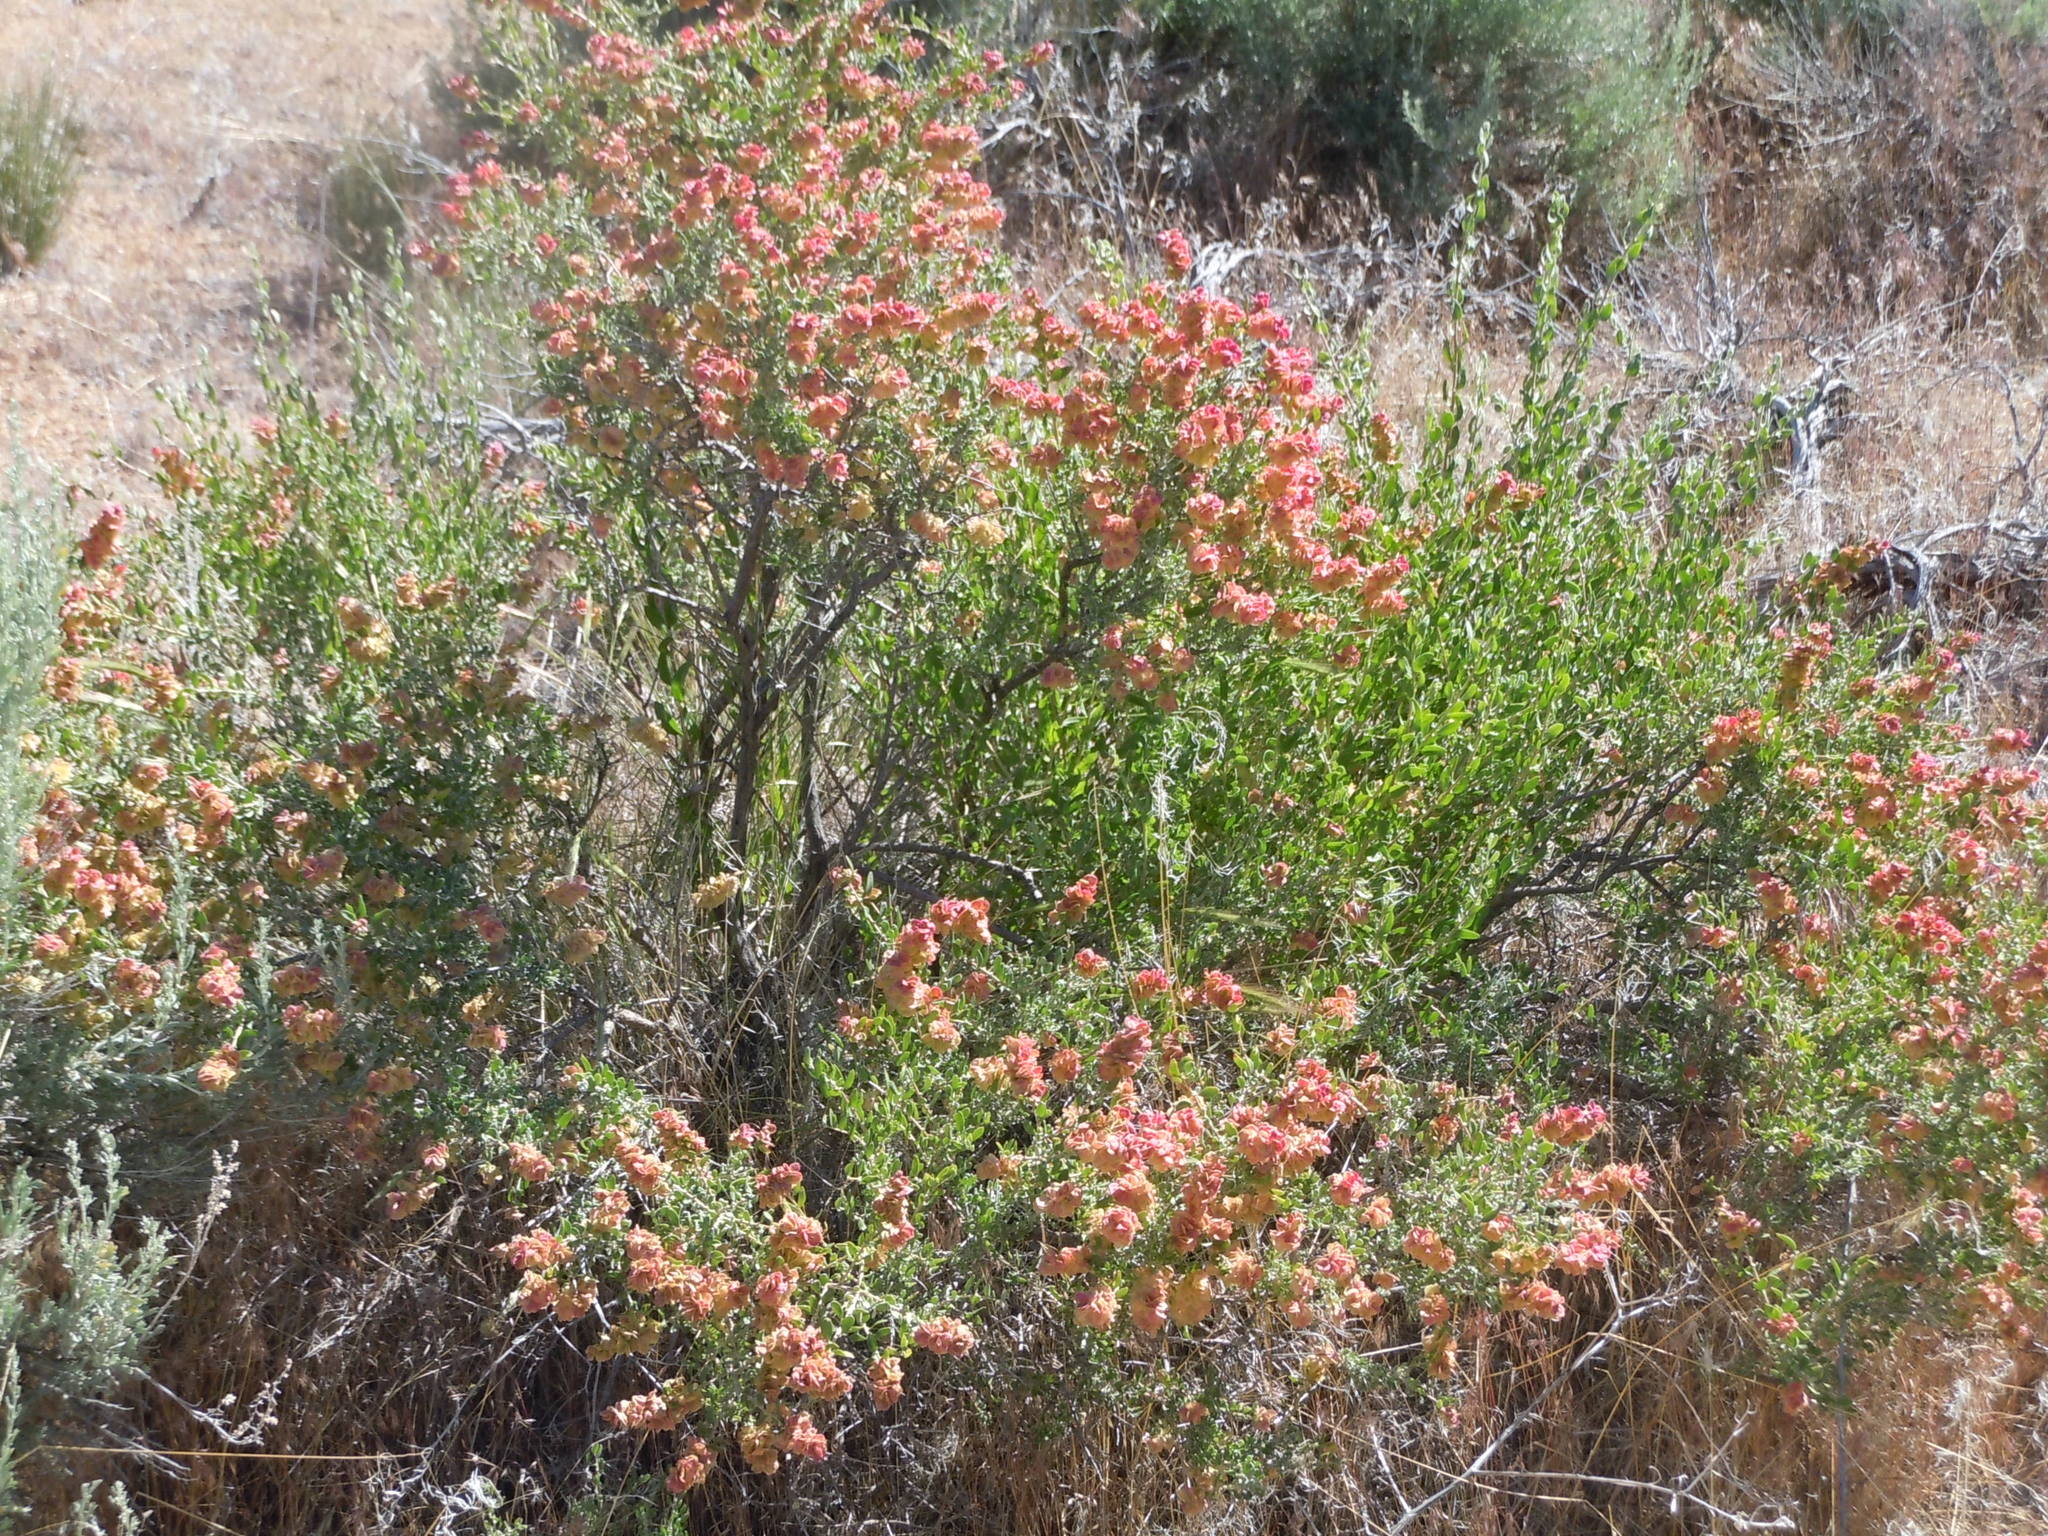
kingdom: Plantae
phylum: Tracheophyta
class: Magnoliopsida
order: Caryophyllales
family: Amaranthaceae
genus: Grayia
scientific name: Grayia spinosa
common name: Spiny hopsage
